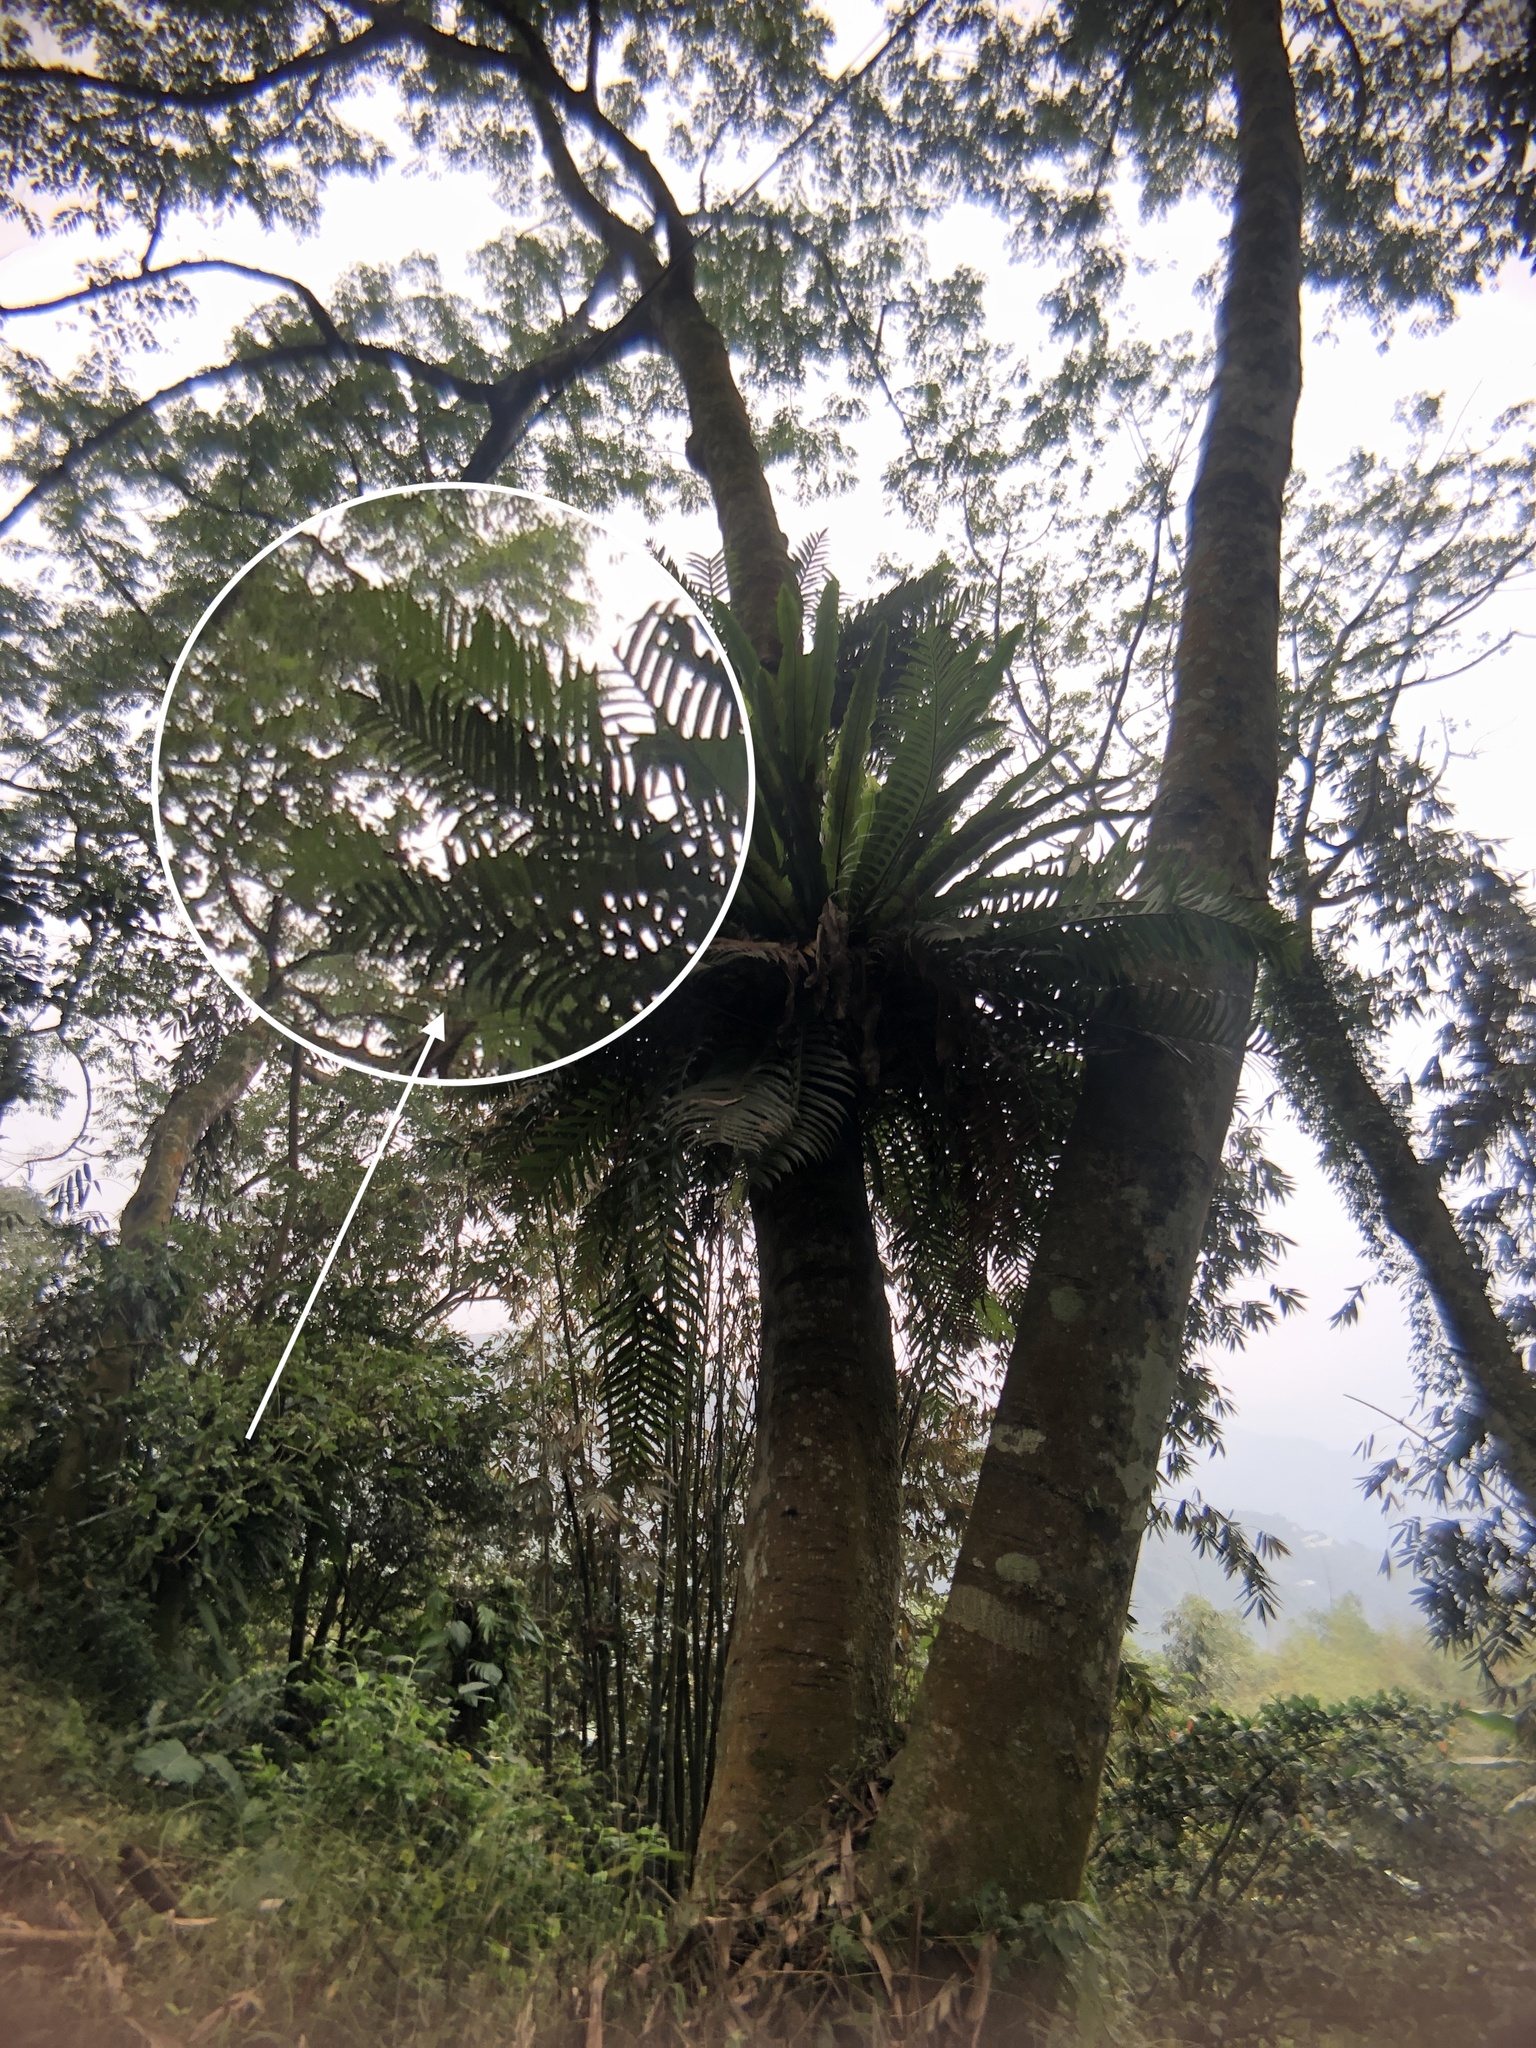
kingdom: Plantae
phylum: Tracheophyta
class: Polypodiopsida
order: Polypodiales
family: Polypodiaceae
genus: Drynaria
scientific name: Drynaria coronans
